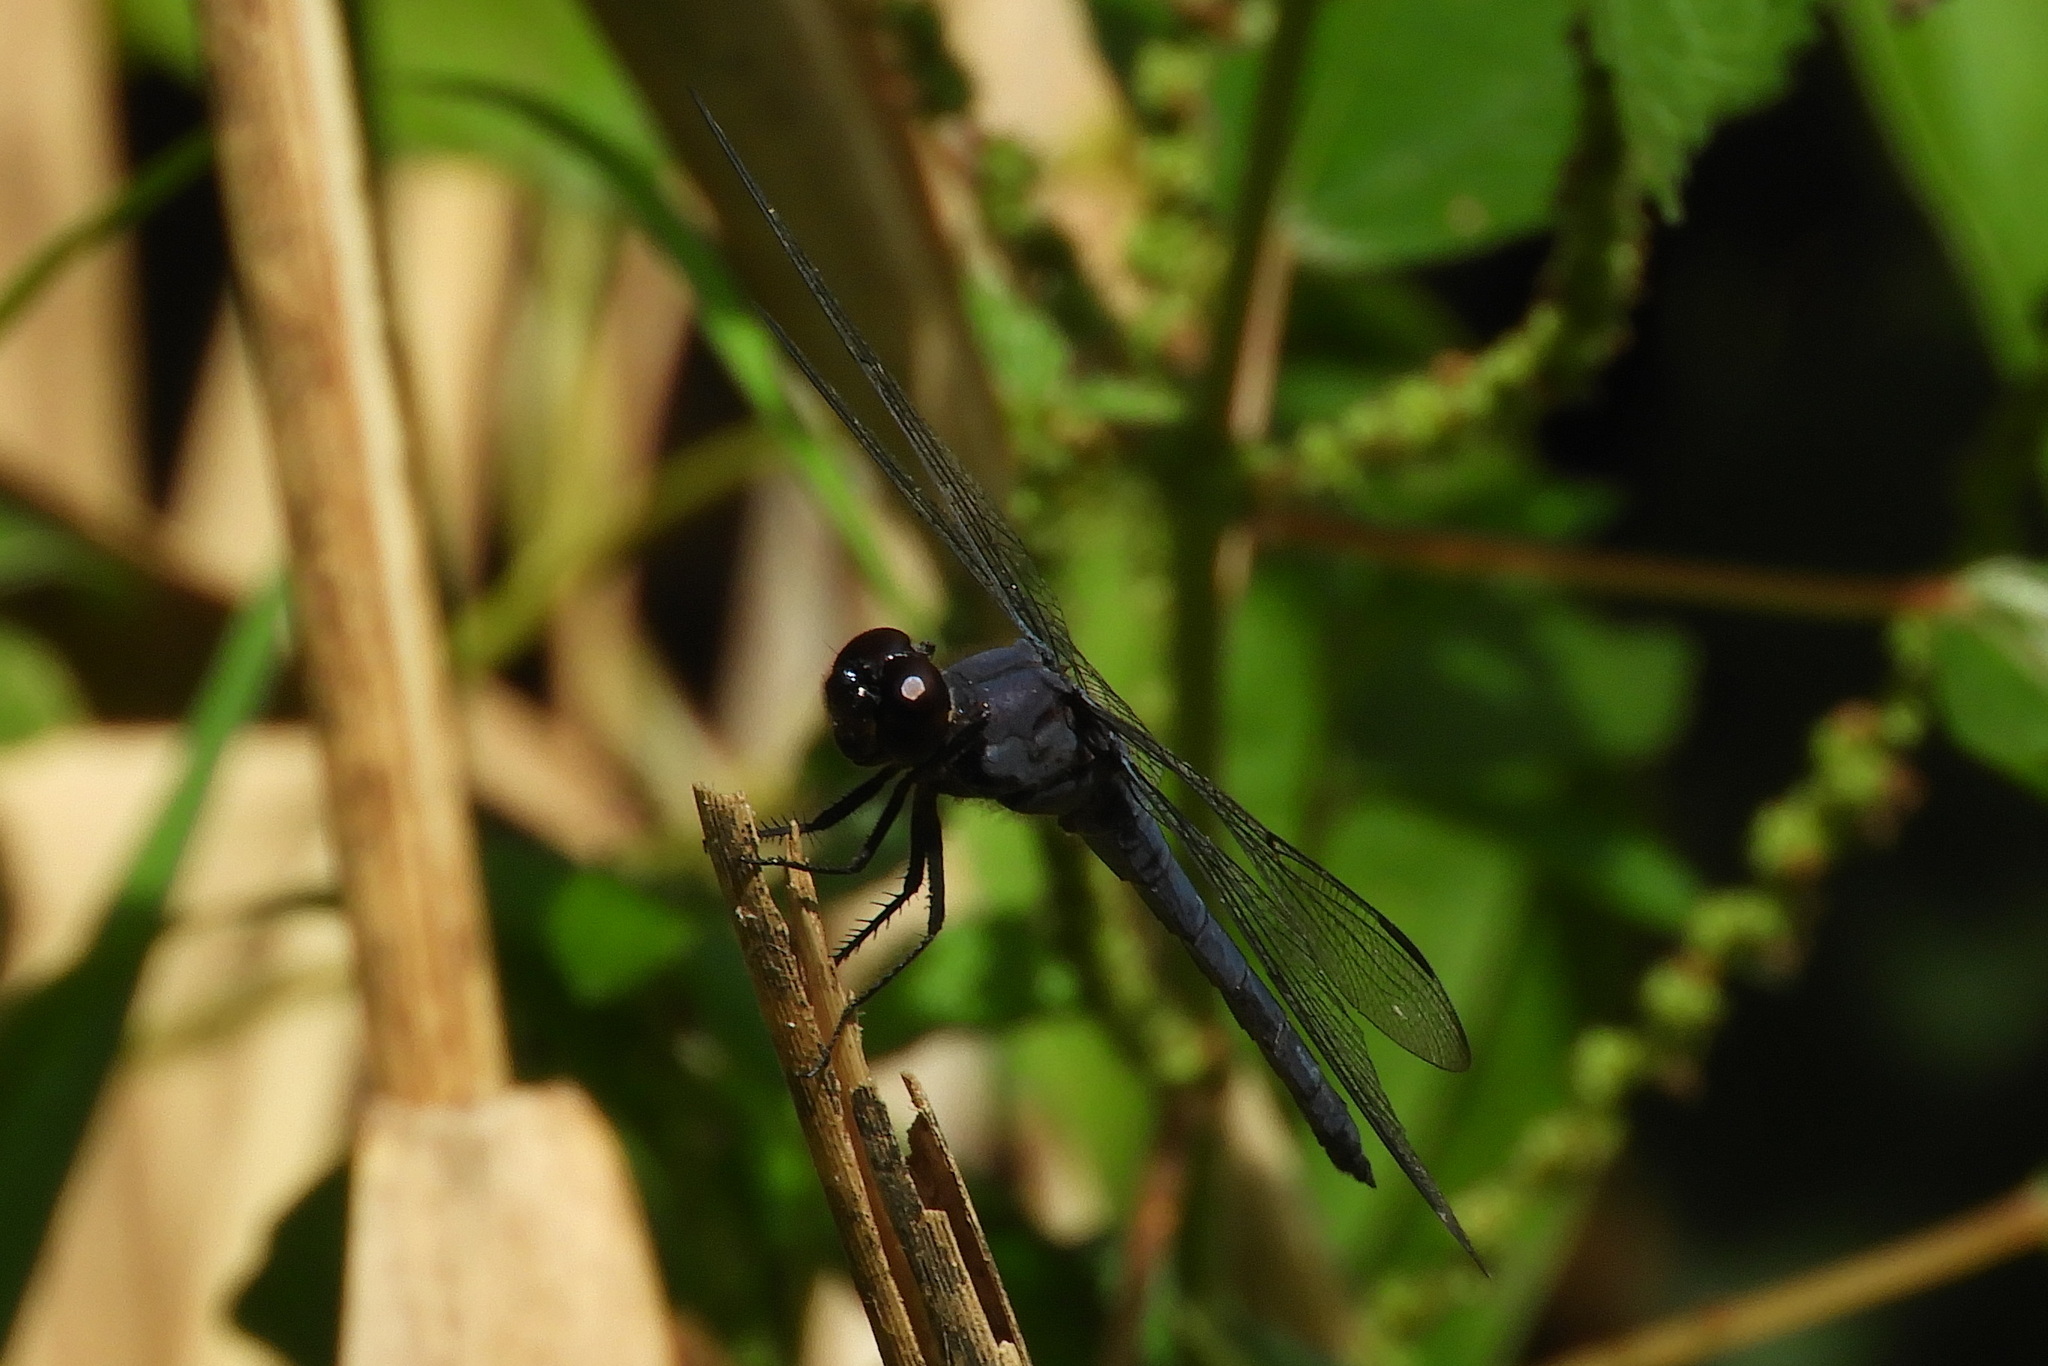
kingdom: Animalia
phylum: Arthropoda
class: Insecta
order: Odonata
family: Libellulidae
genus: Libellula
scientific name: Libellula incesta
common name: Slaty skimmer
